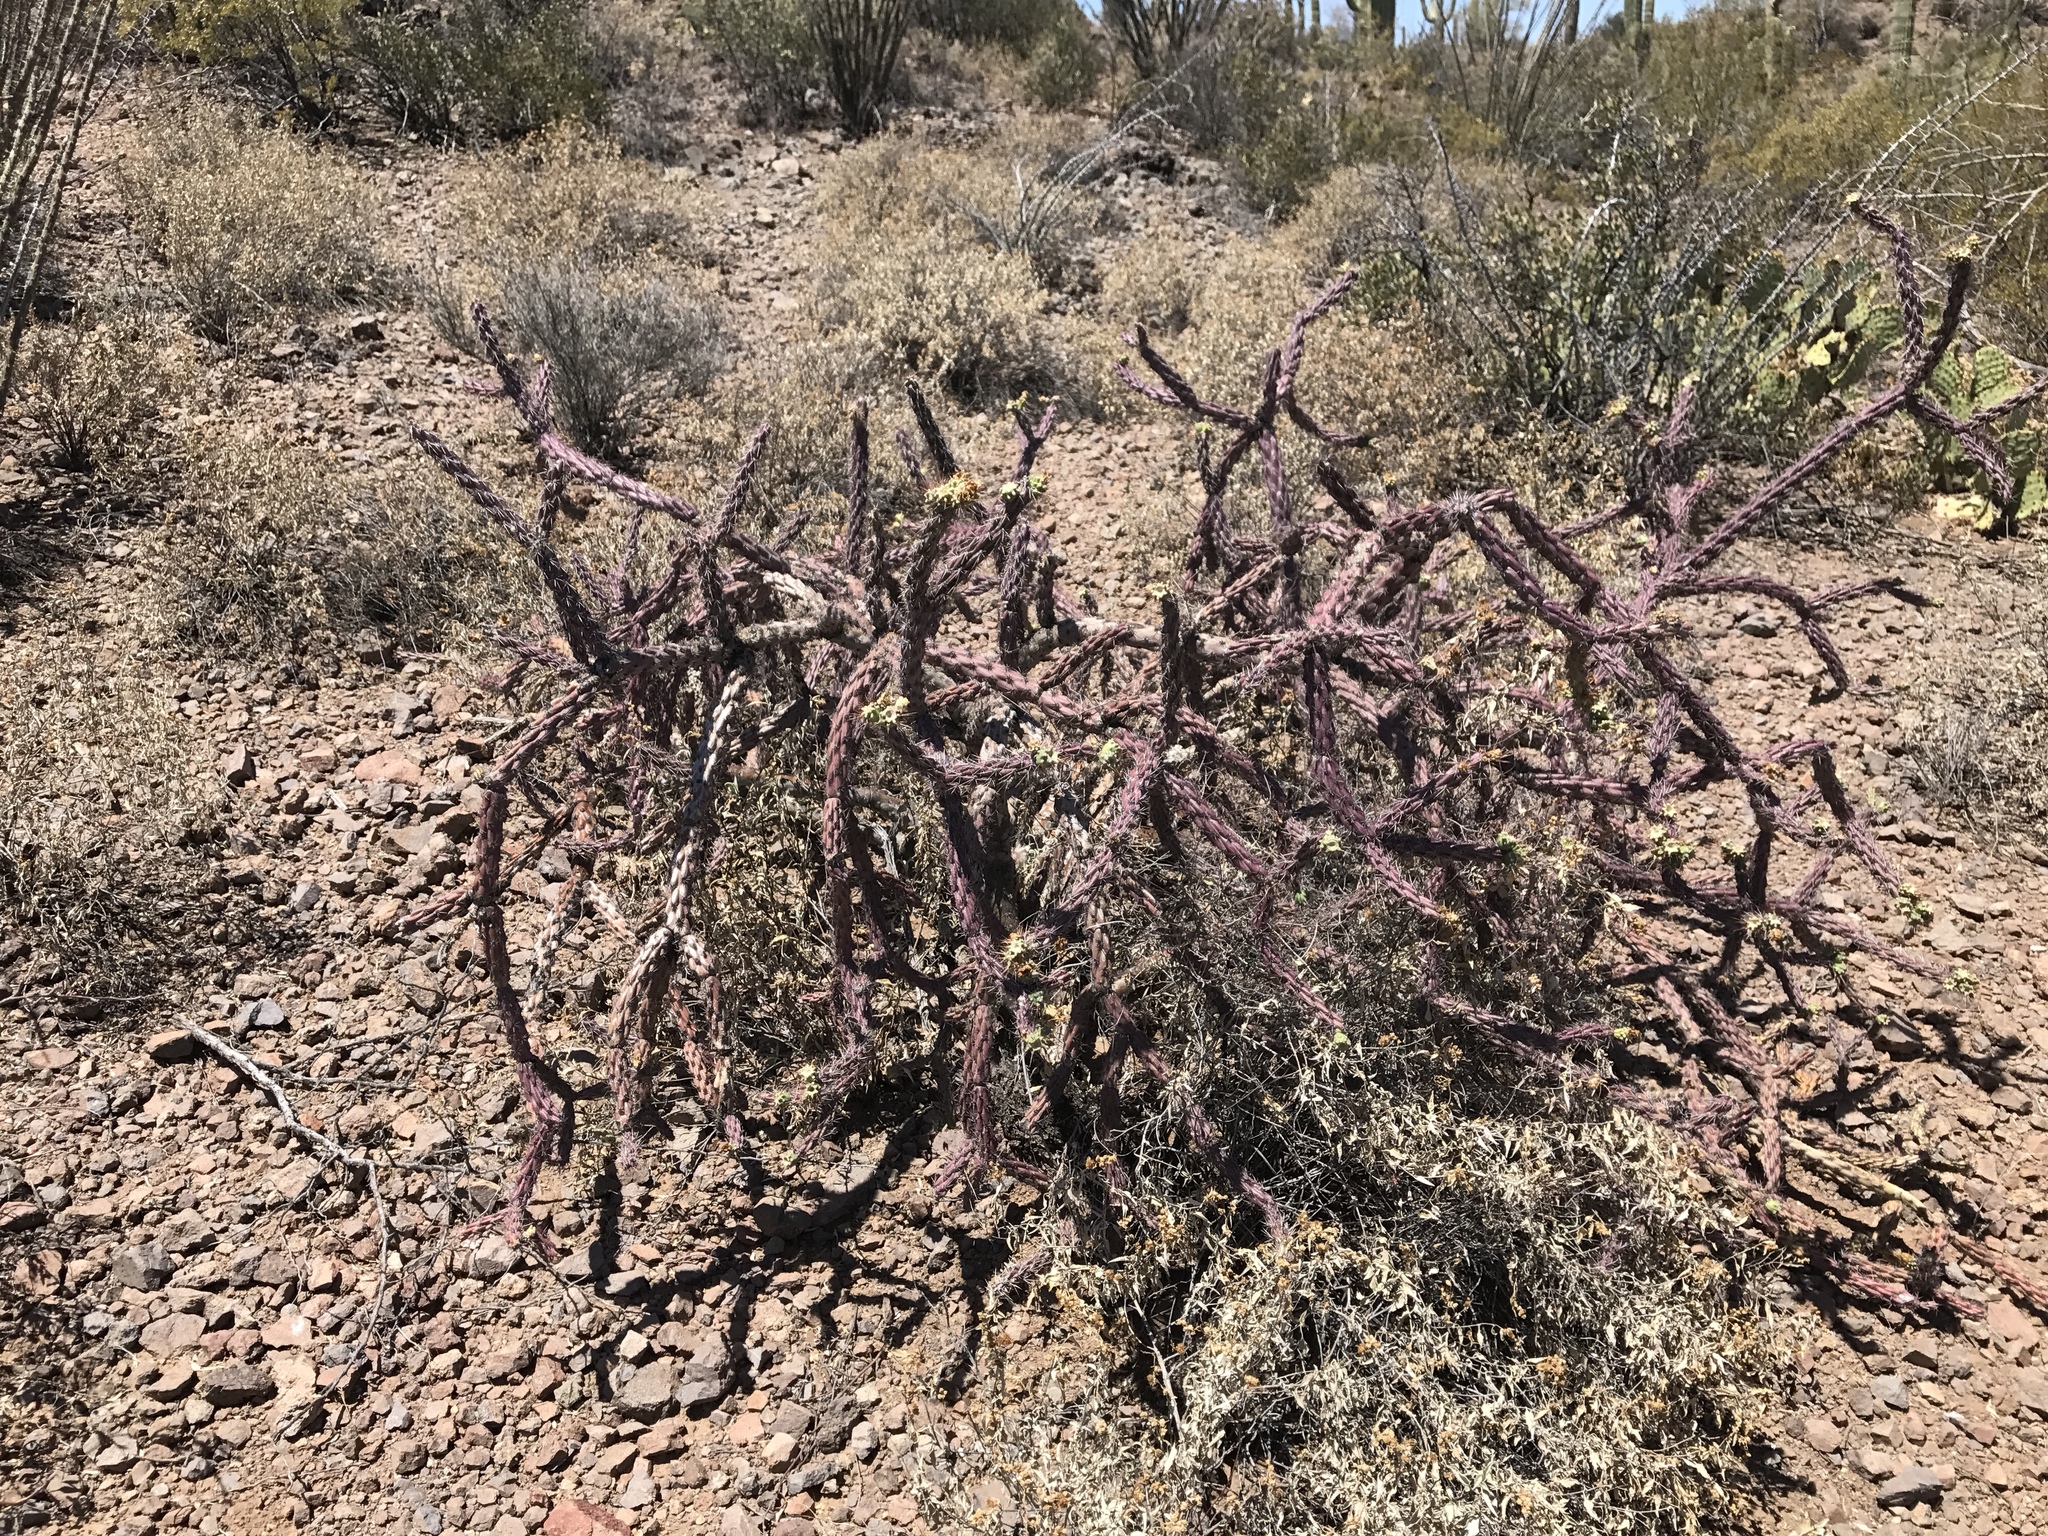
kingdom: Plantae
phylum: Tracheophyta
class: Magnoliopsida
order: Caryophyllales
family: Cactaceae
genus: Cylindropuntia
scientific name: Cylindropuntia thurberi
